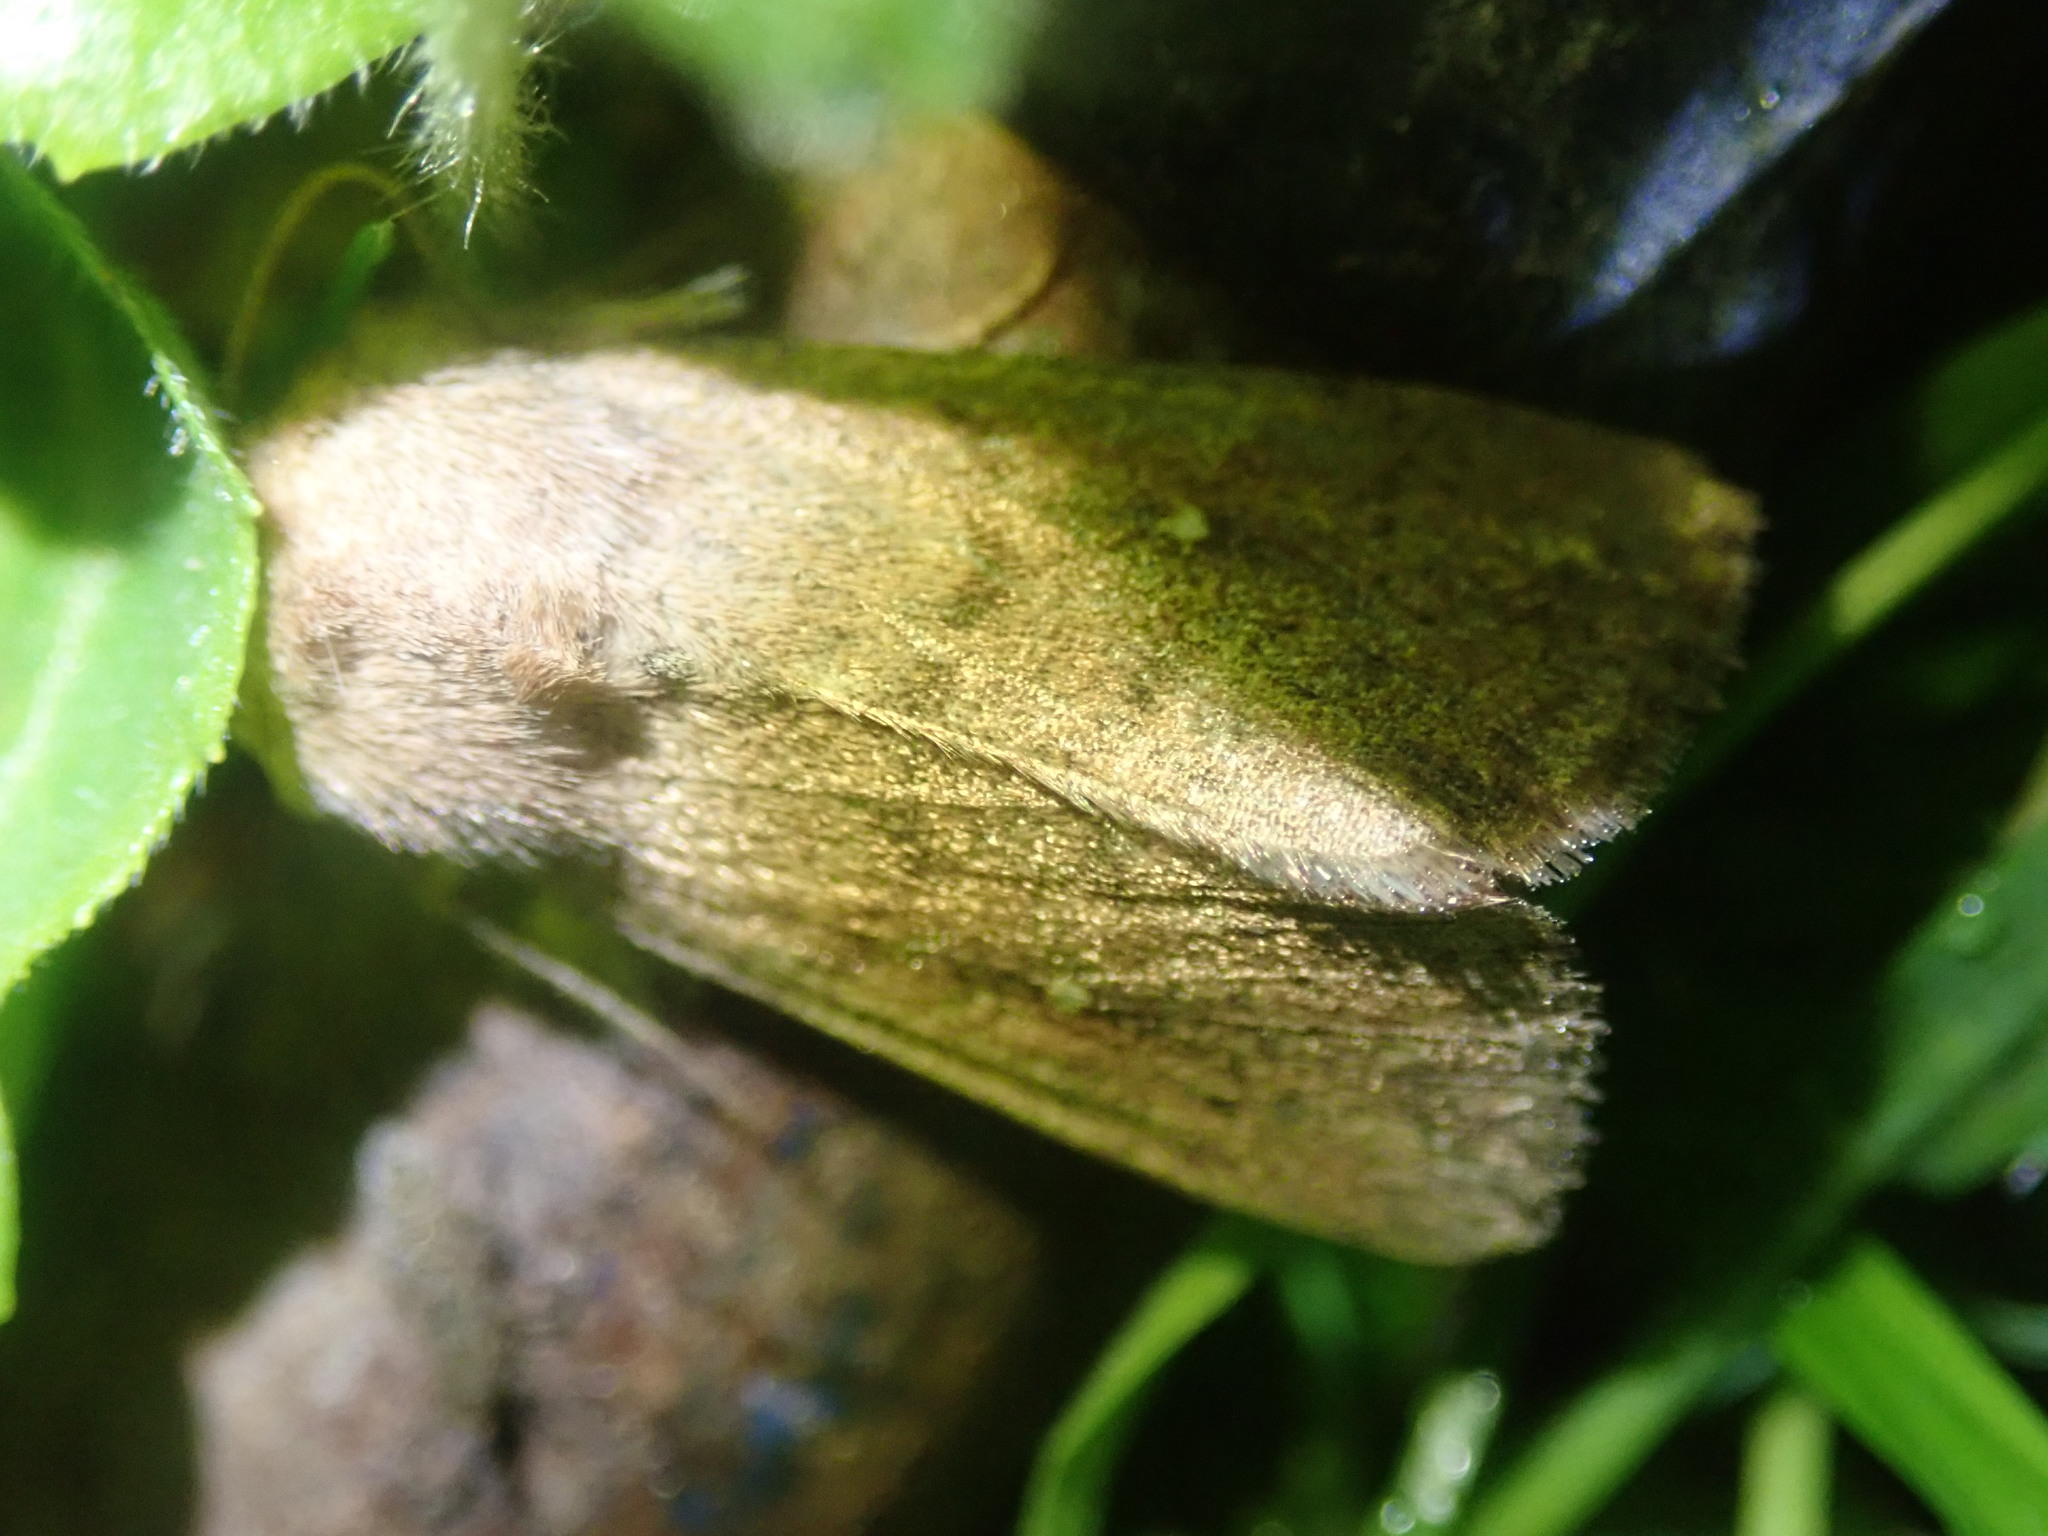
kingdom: Animalia
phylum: Arthropoda
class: Insecta
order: Lepidoptera
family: Noctuidae
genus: Mythimna
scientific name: Mythimna albipuncta
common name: White-point
